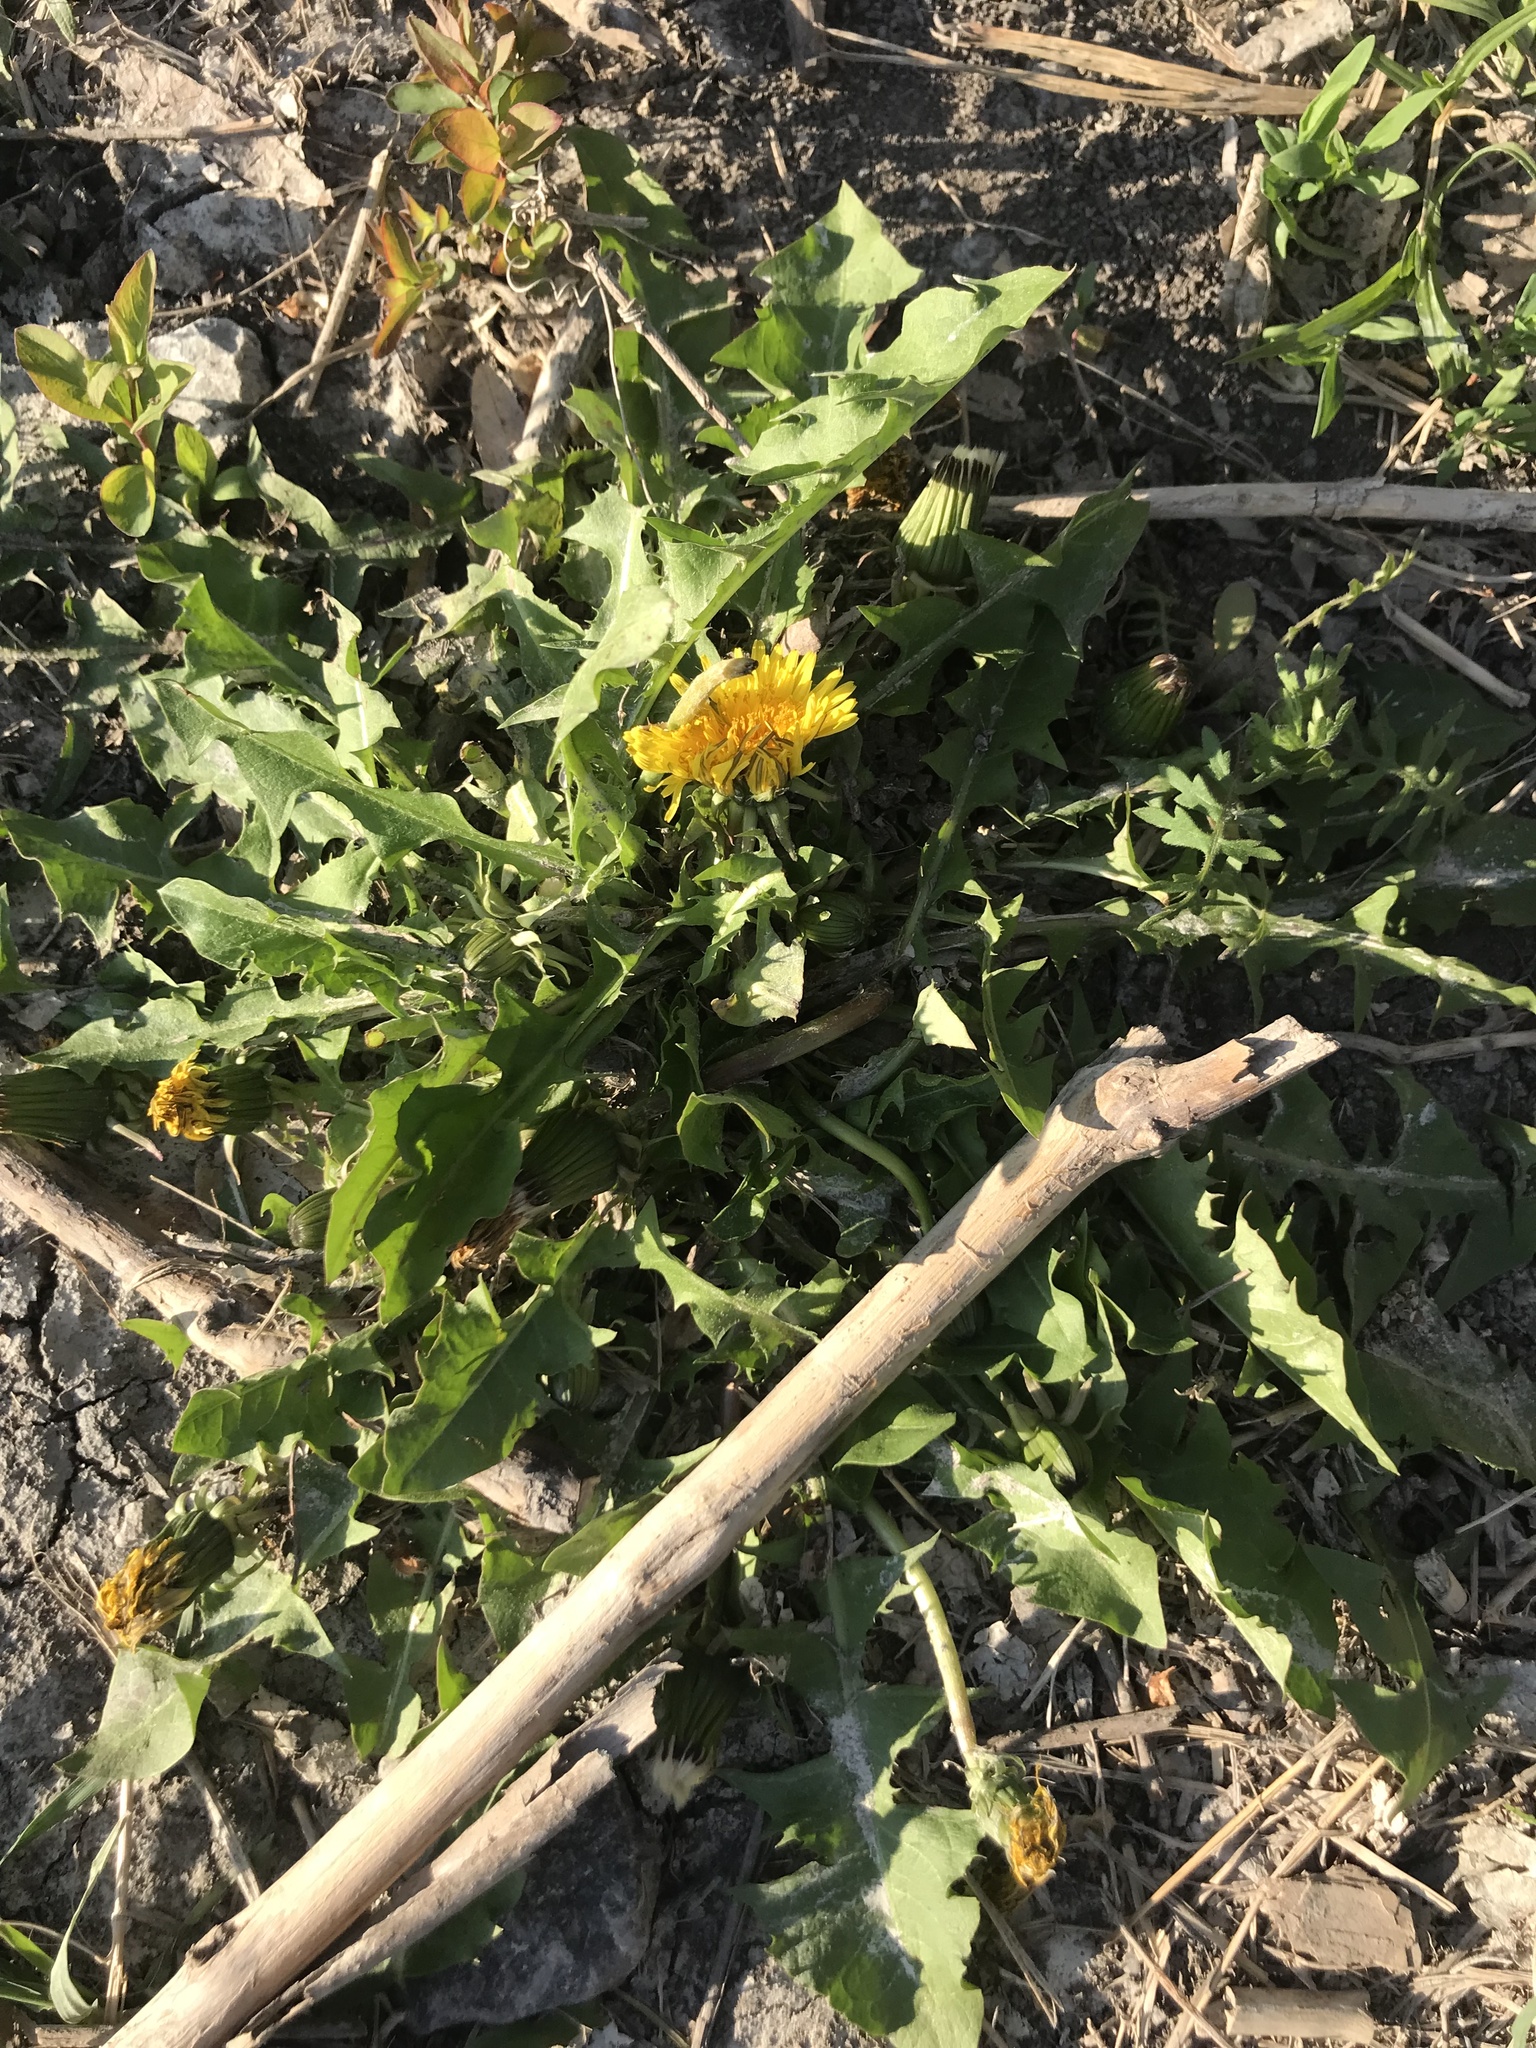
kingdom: Plantae
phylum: Tracheophyta
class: Magnoliopsida
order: Asterales
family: Asteraceae
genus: Taraxacum
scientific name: Taraxacum
